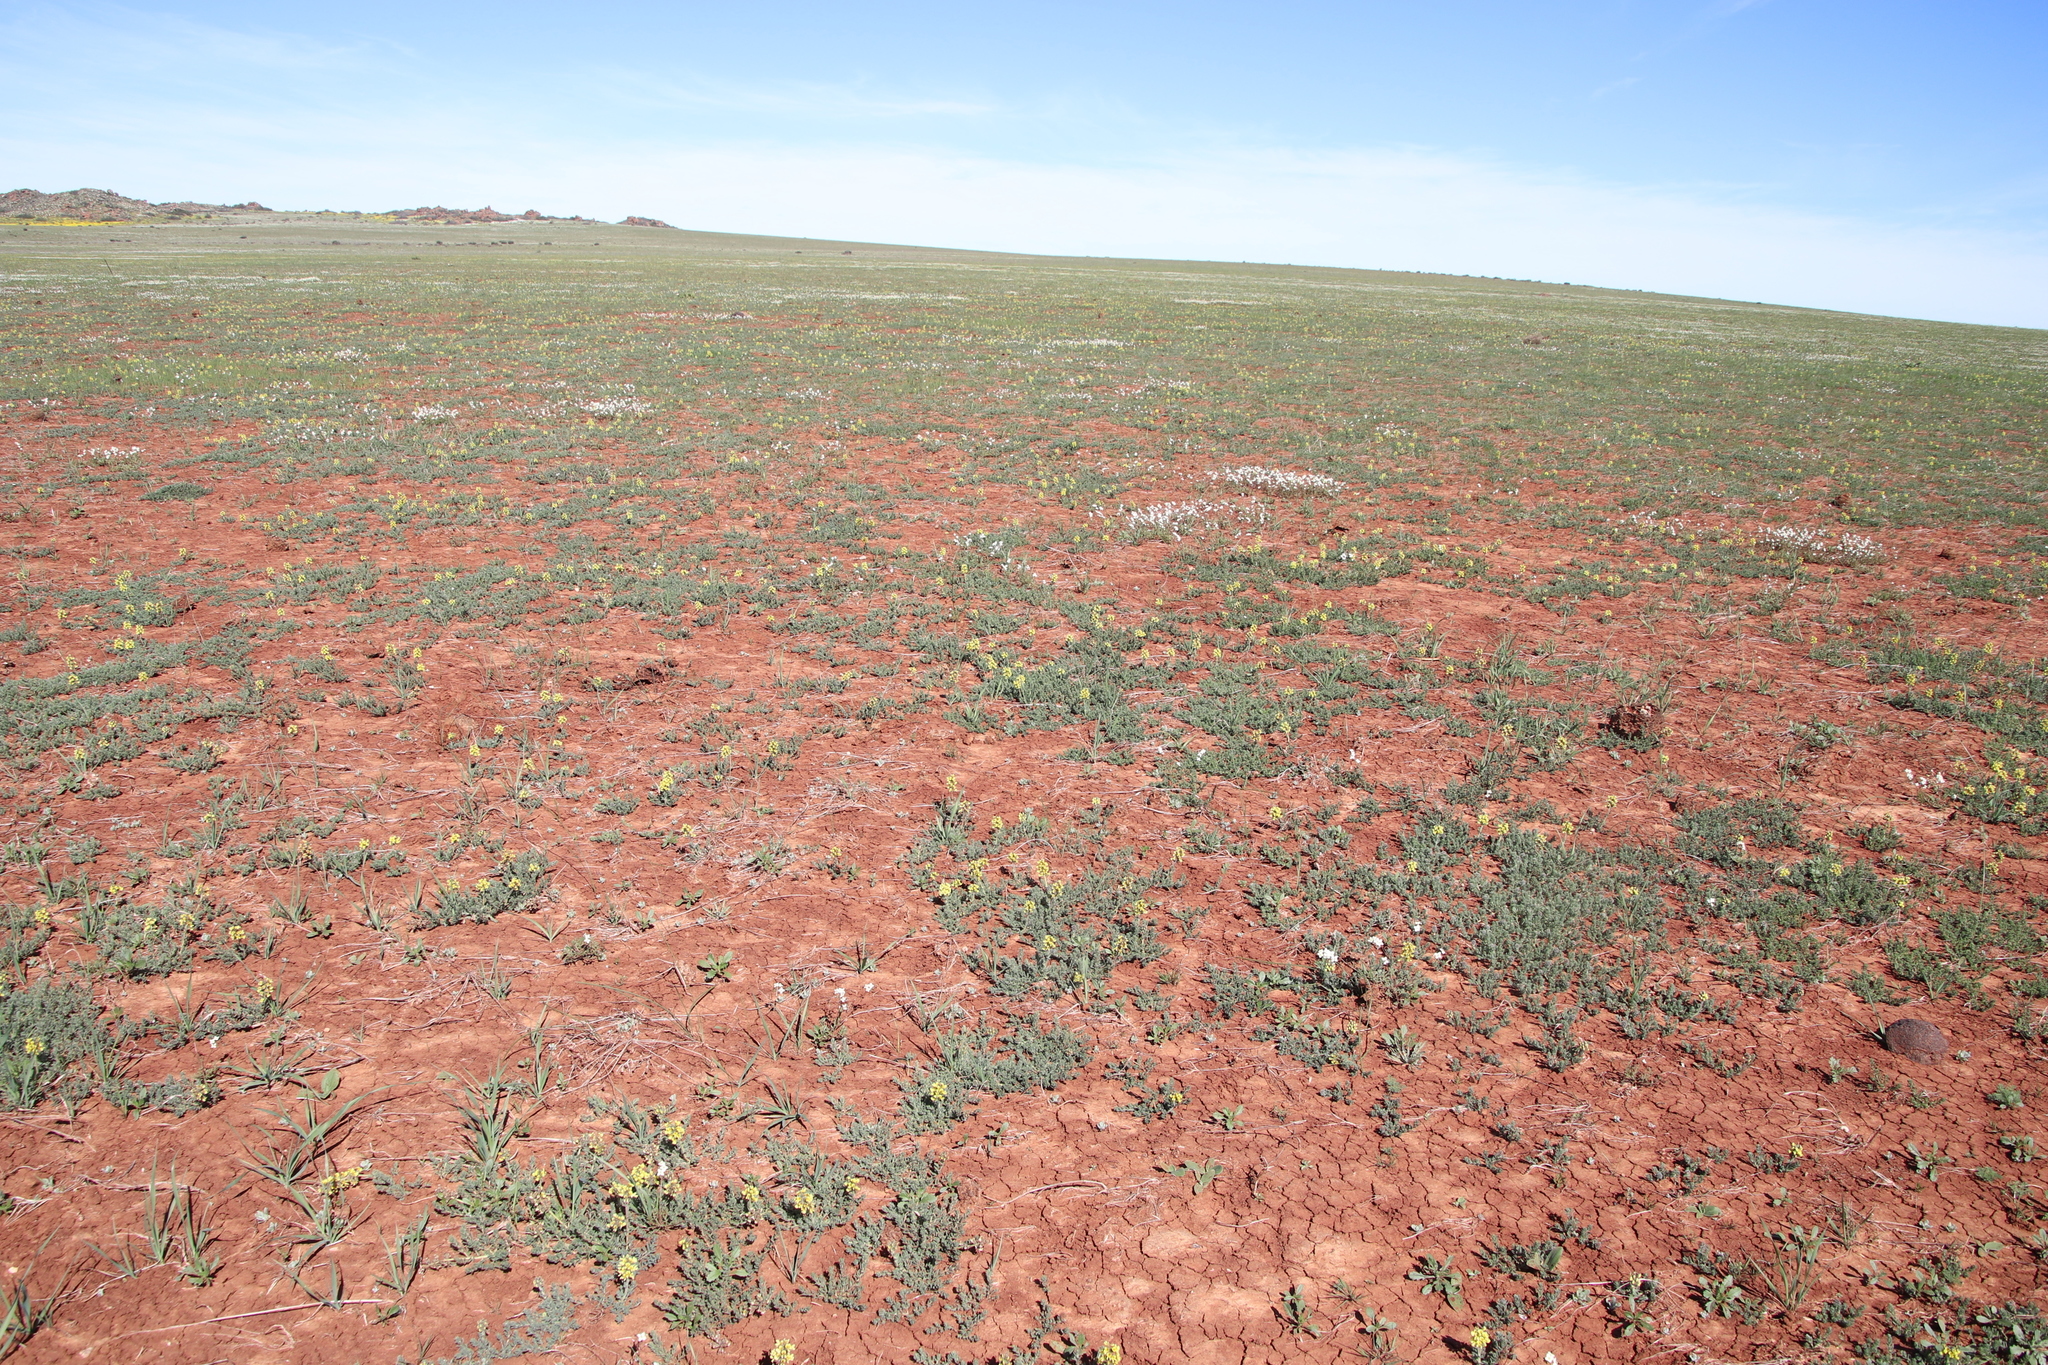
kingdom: Plantae
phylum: Tracheophyta
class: Magnoliopsida
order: Fabales
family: Fabaceae
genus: Euchlora
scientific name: Euchlora hirsuta
